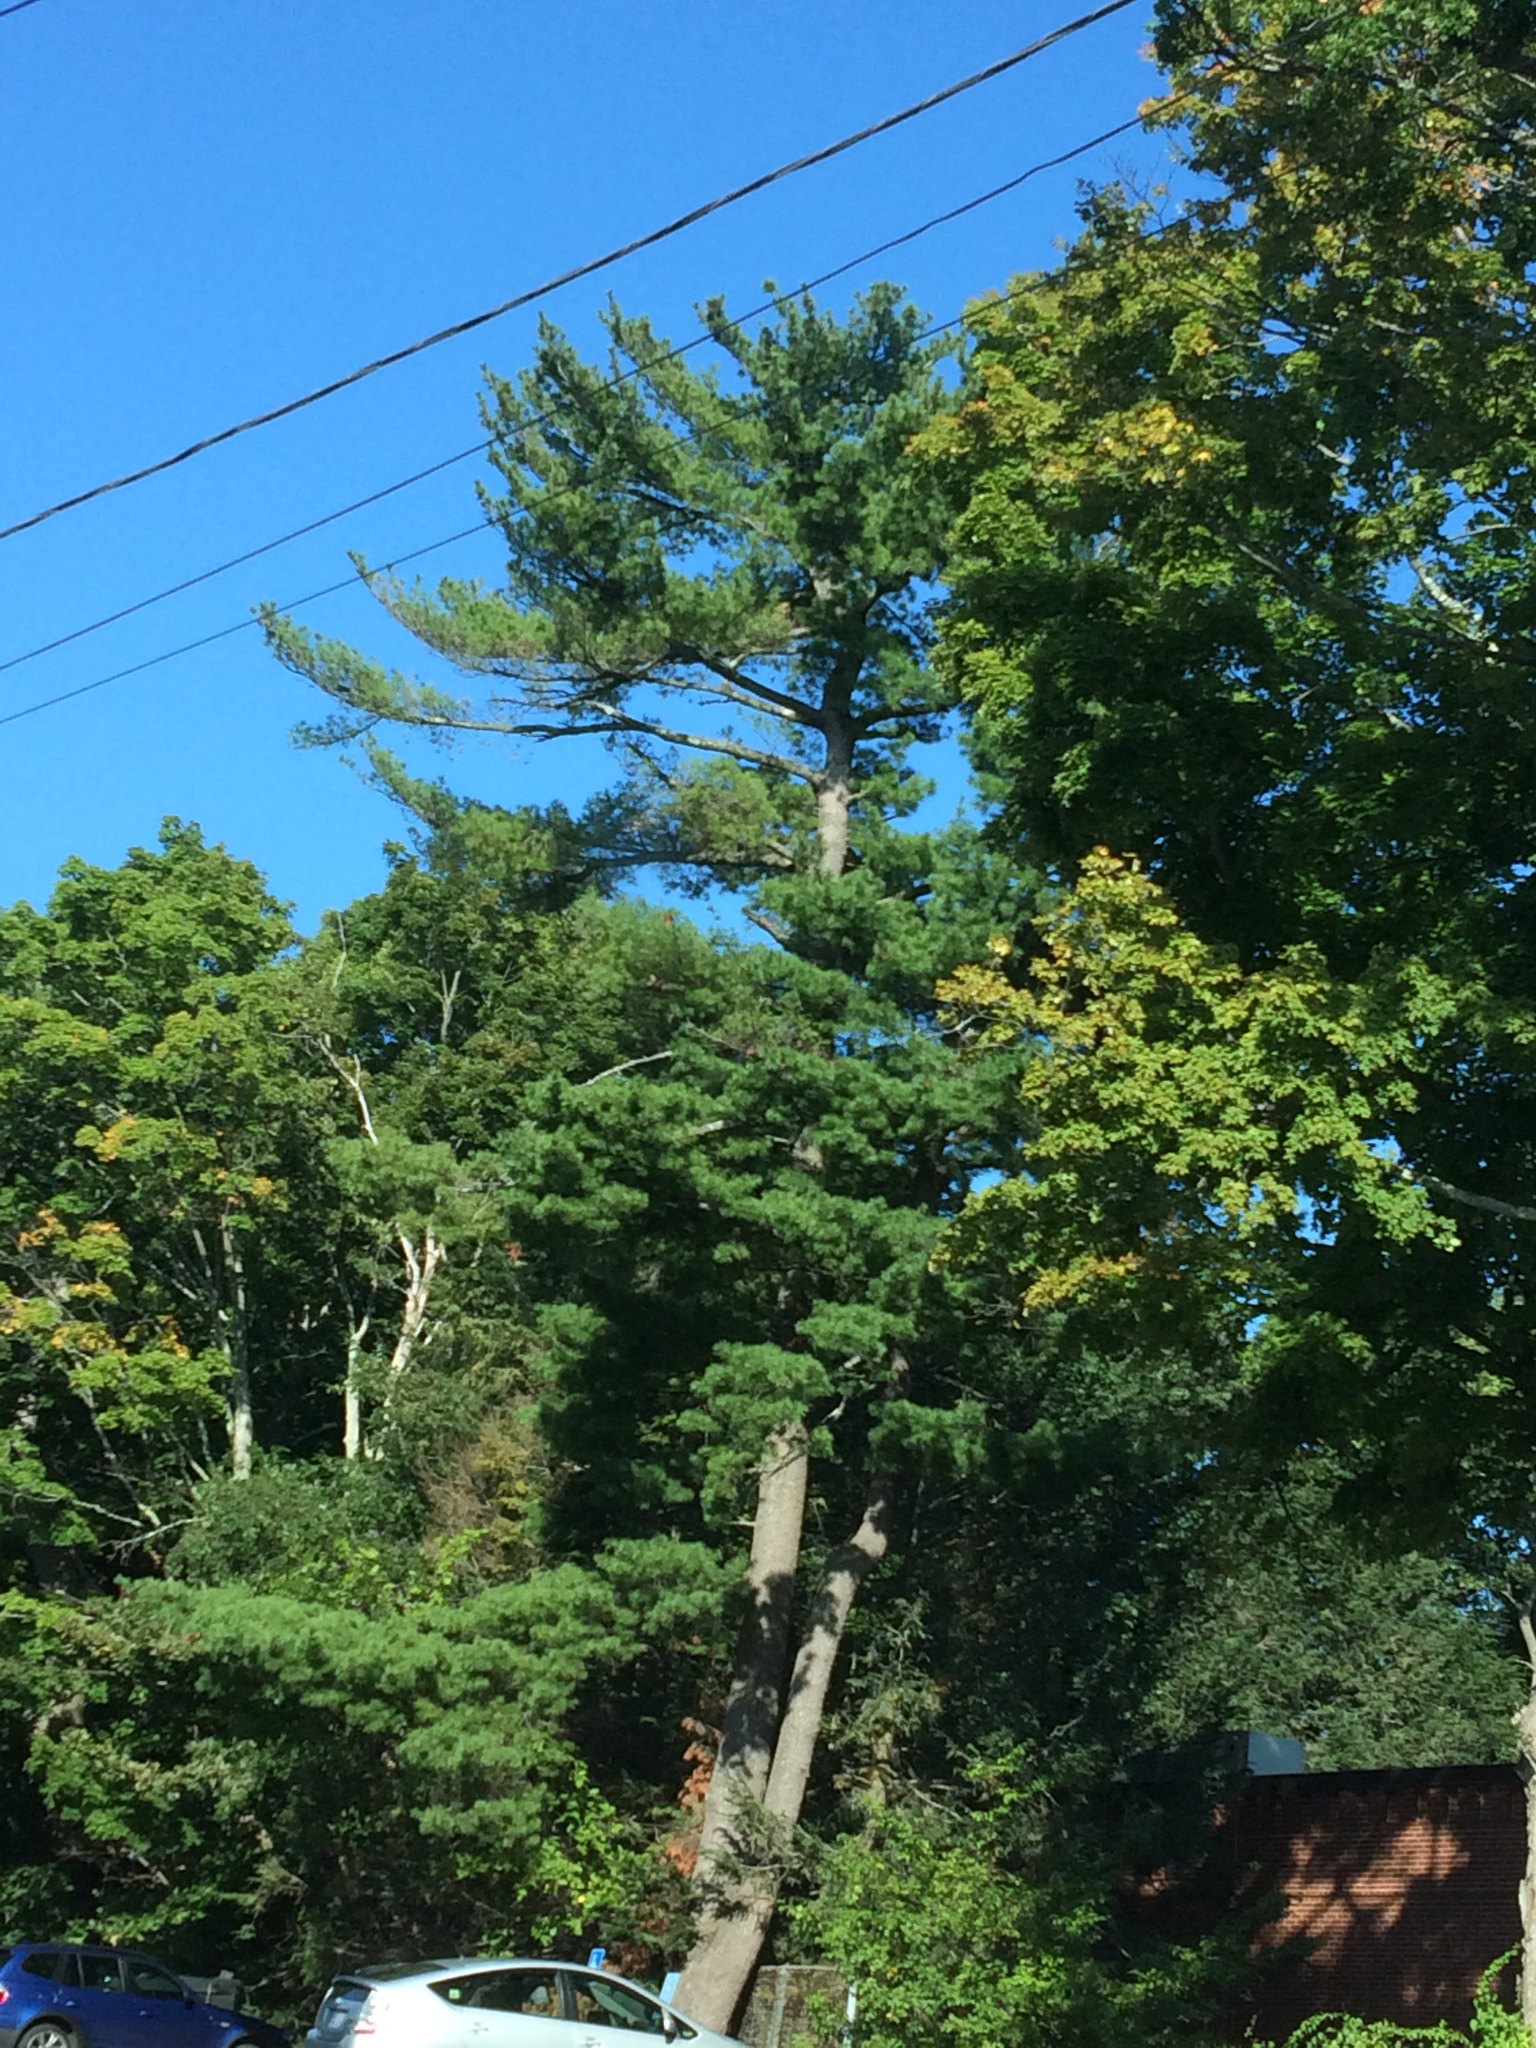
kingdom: Plantae
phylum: Tracheophyta
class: Pinopsida
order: Pinales
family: Pinaceae
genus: Pinus
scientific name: Pinus strobus
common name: Weymouth pine
